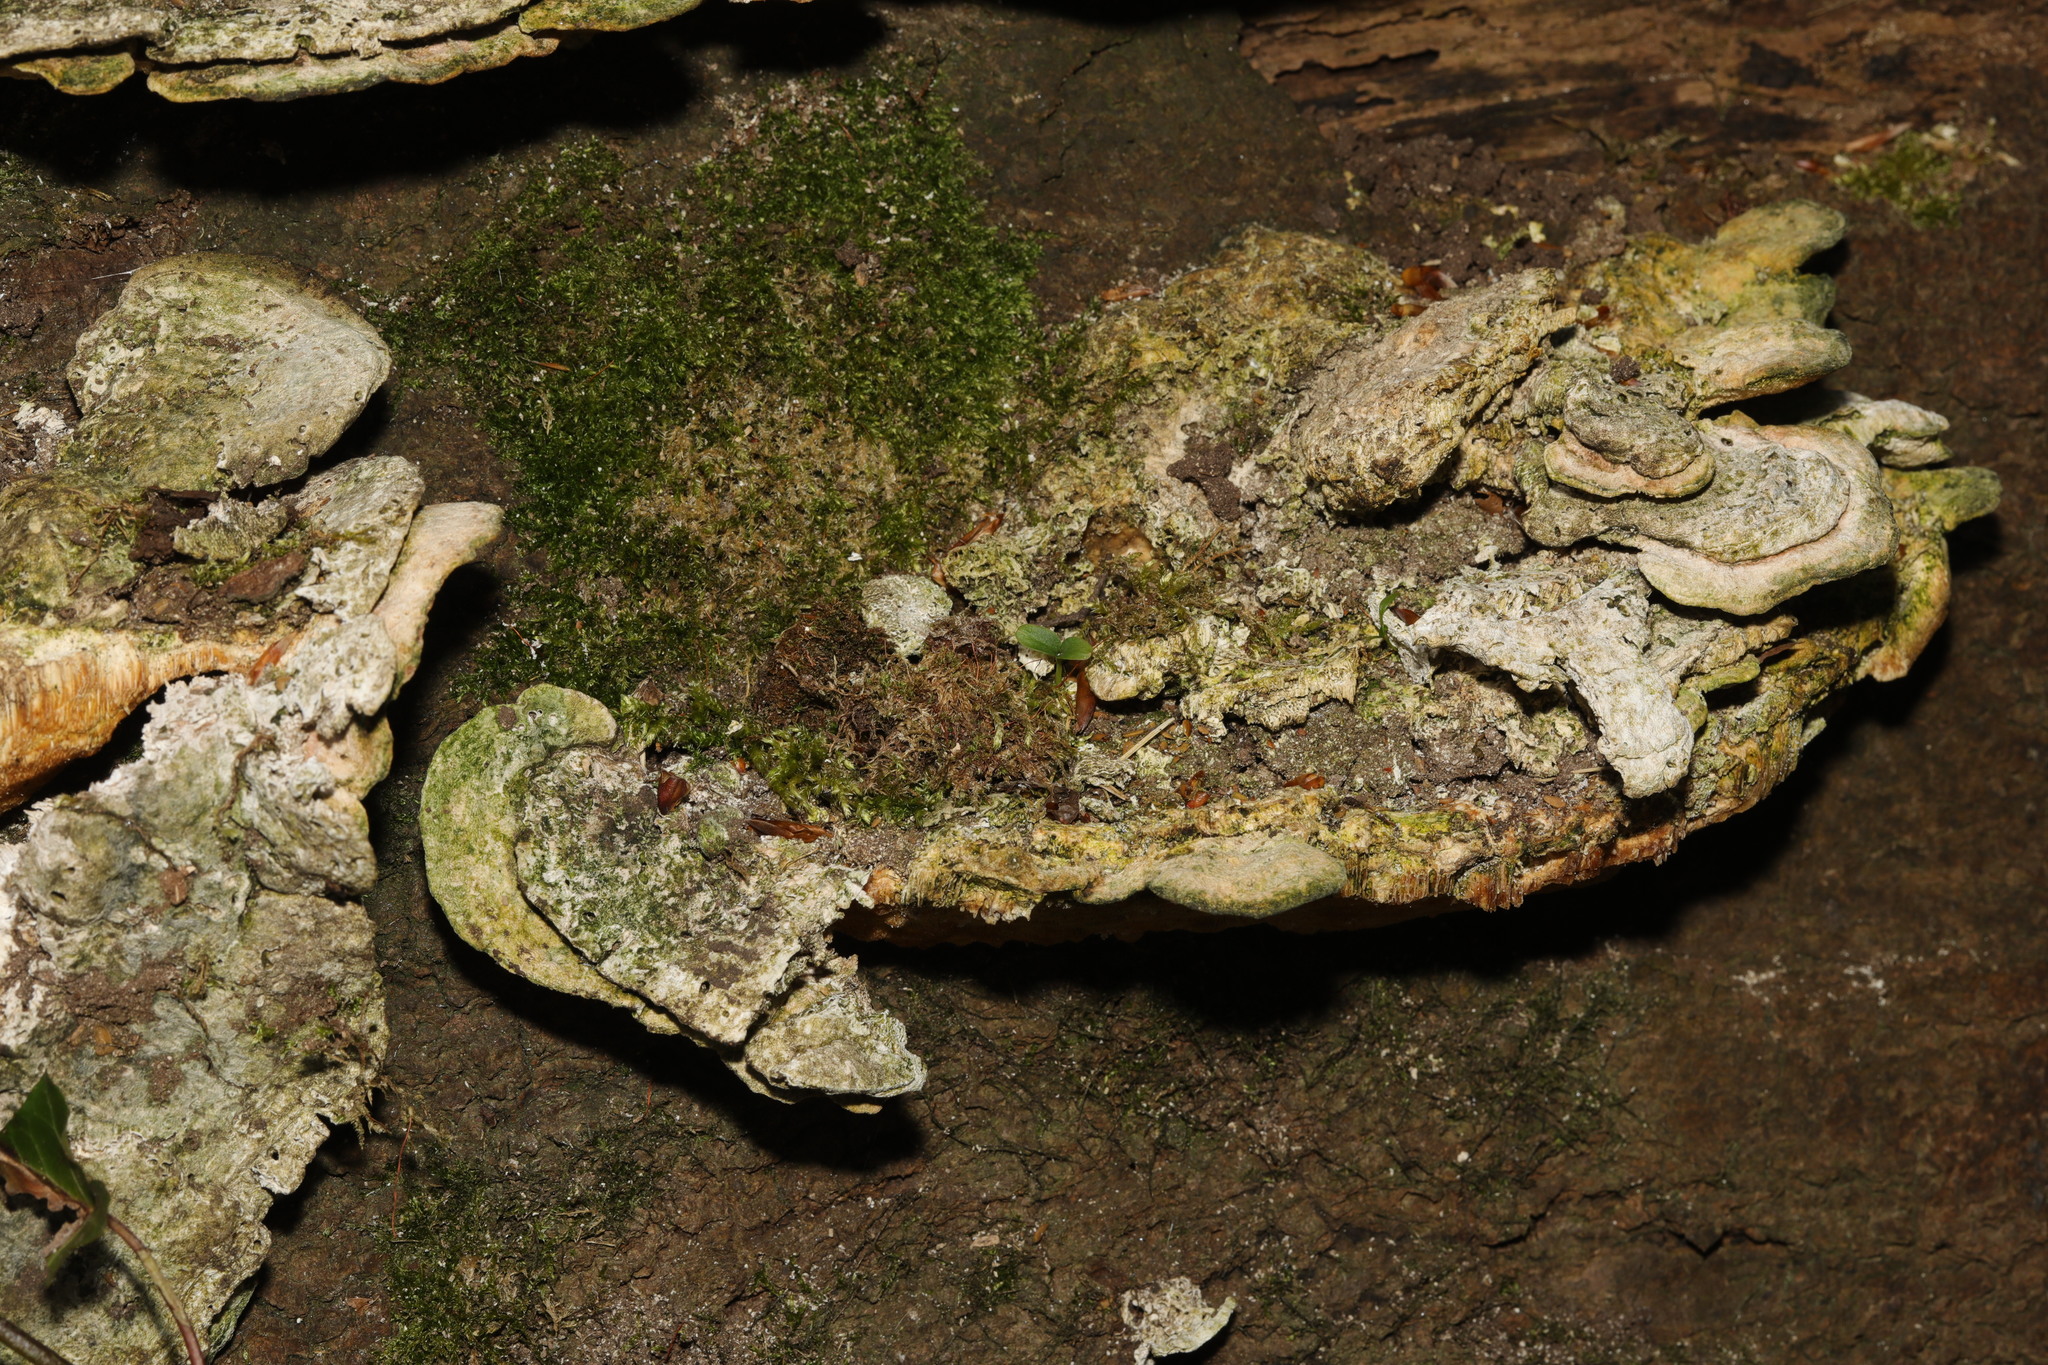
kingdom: Fungi
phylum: Basidiomycota
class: Agaricomycetes
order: Polyporales
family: Polyporaceae
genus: Trametes
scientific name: Trametes gibbosa
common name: Lumpy bracket
